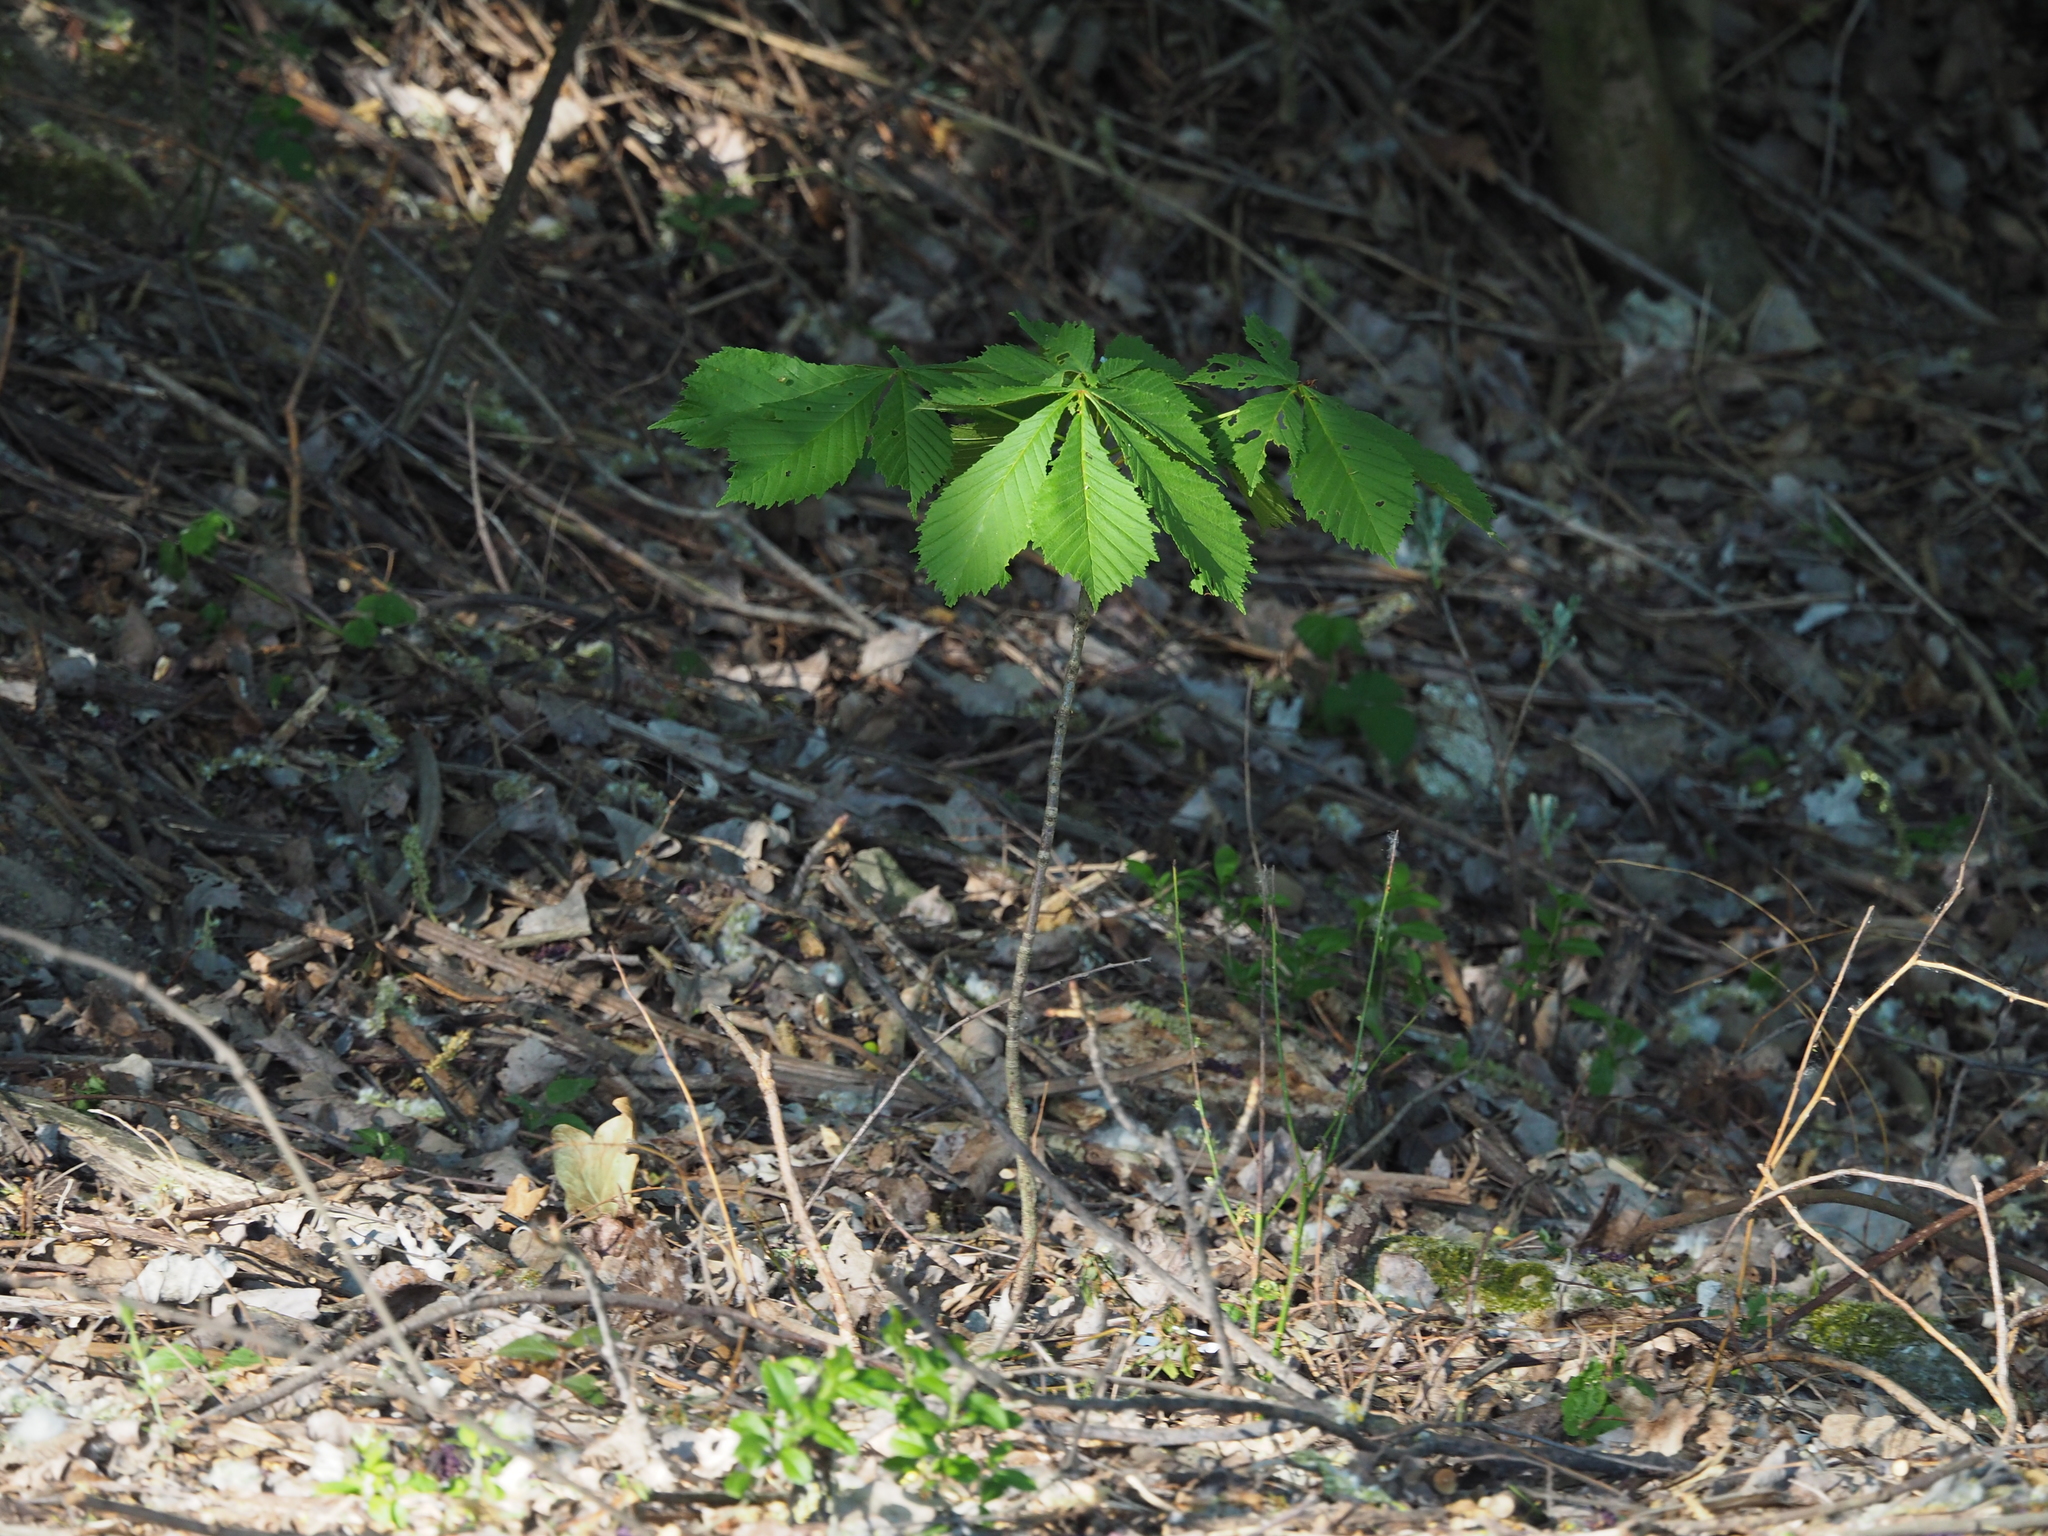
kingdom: Plantae
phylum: Tracheophyta
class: Magnoliopsida
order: Sapindales
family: Sapindaceae
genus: Aesculus
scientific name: Aesculus hippocastanum
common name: Horse-chestnut
